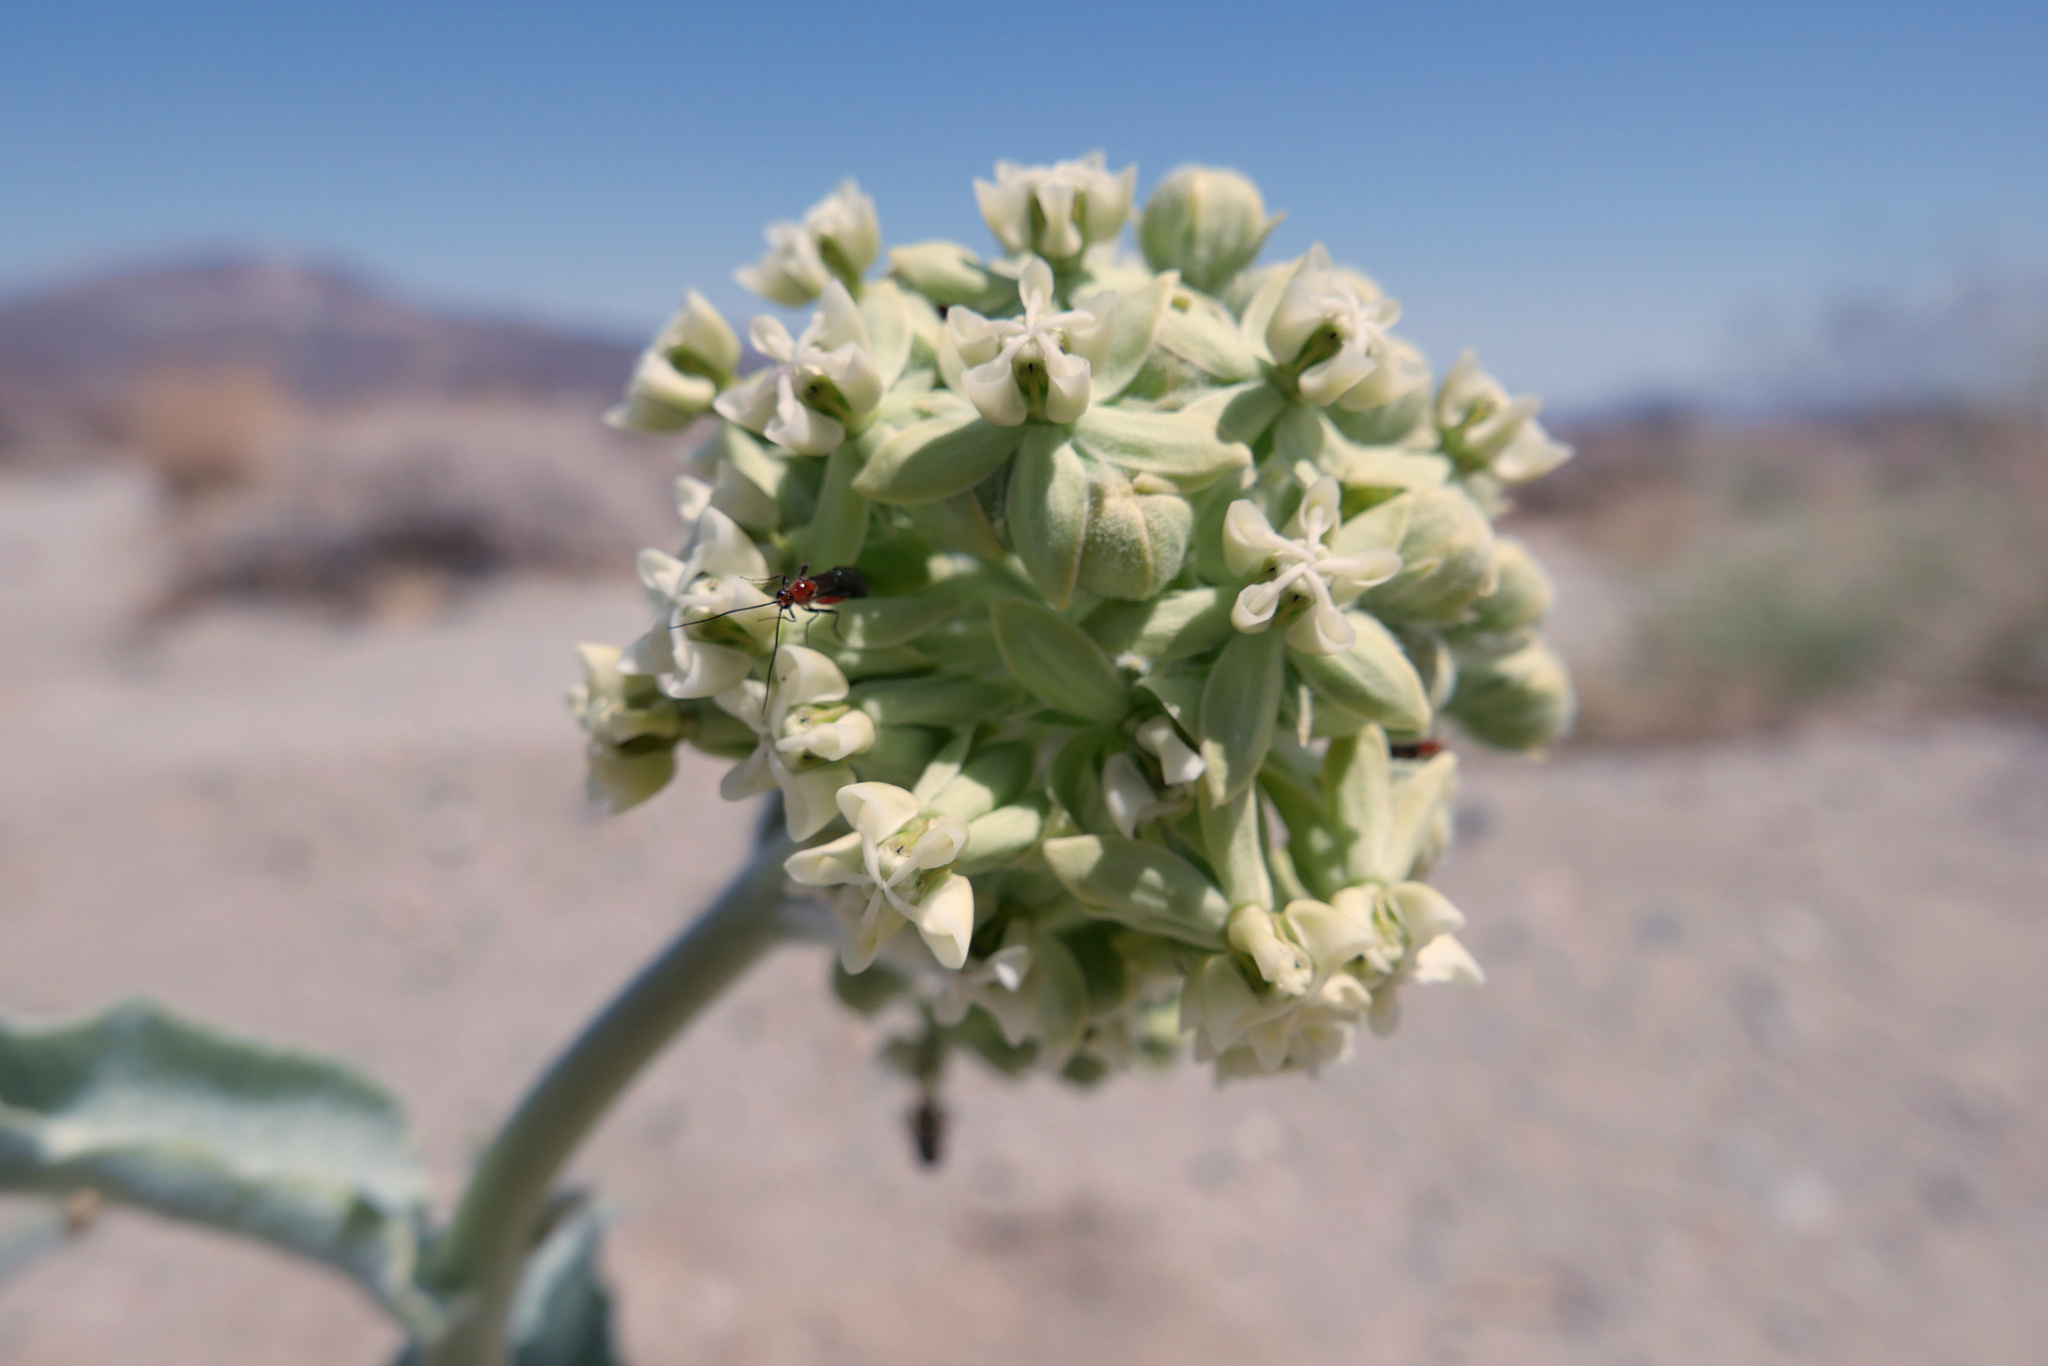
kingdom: Plantae
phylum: Tracheophyta
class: Magnoliopsida
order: Gentianales
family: Apocynaceae
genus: Asclepias
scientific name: Asclepias erosa
